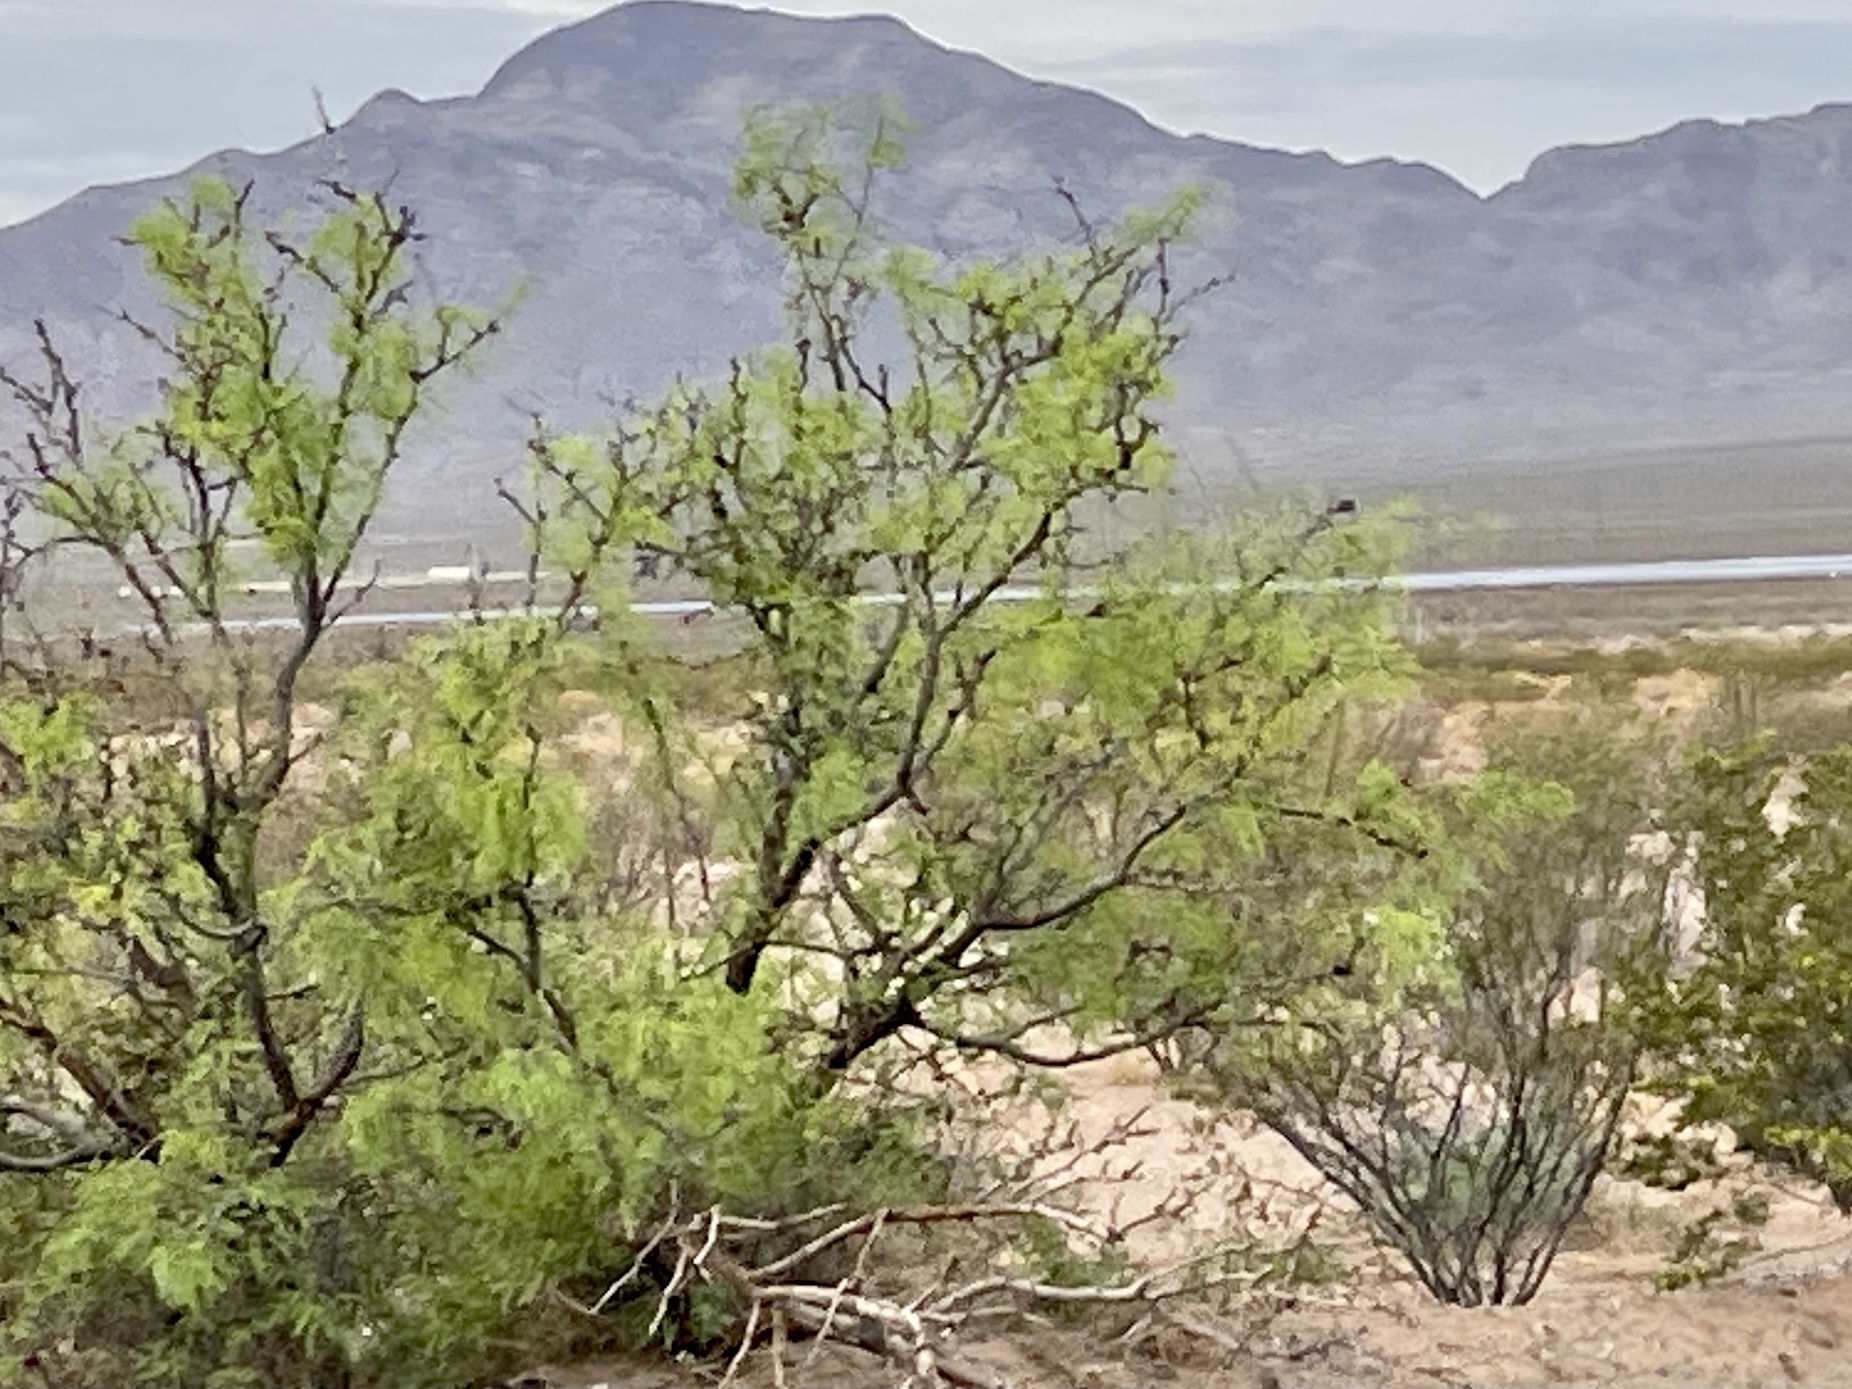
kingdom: Plantae
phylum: Tracheophyta
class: Magnoliopsida
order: Fabales
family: Fabaceae
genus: Prosopis
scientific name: Prosopis glandulosa
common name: Honey mesquite
